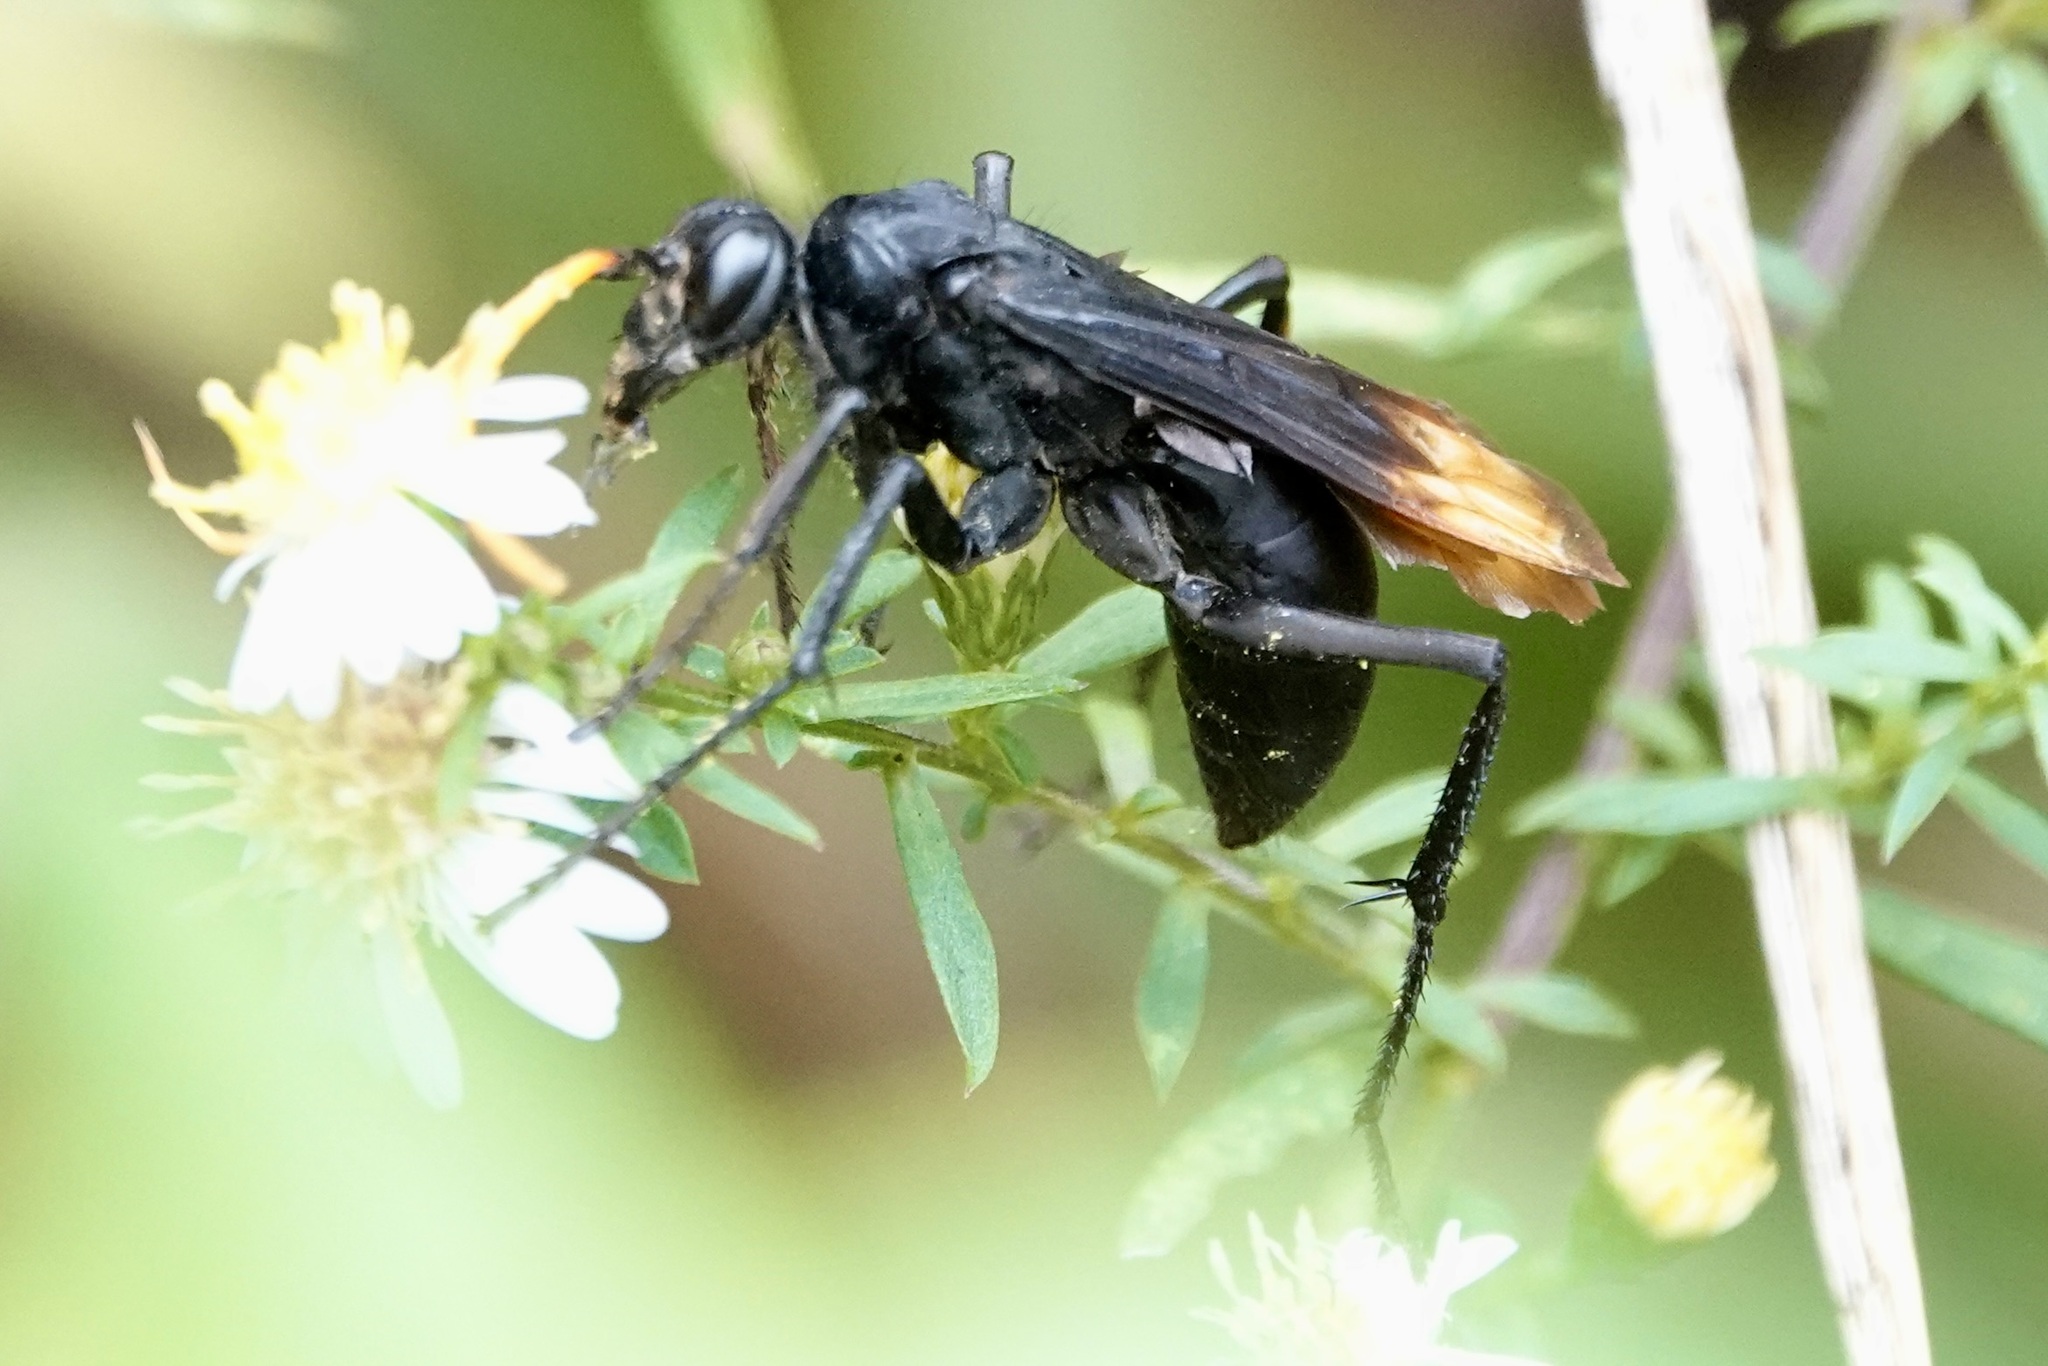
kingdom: Animalia
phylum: Arthropoda
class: Insecta
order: Hymenoptera
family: Pompilidae
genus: Entypus
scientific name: Entypus unifasciatus
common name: Eastern tawny-horned spider wasp
